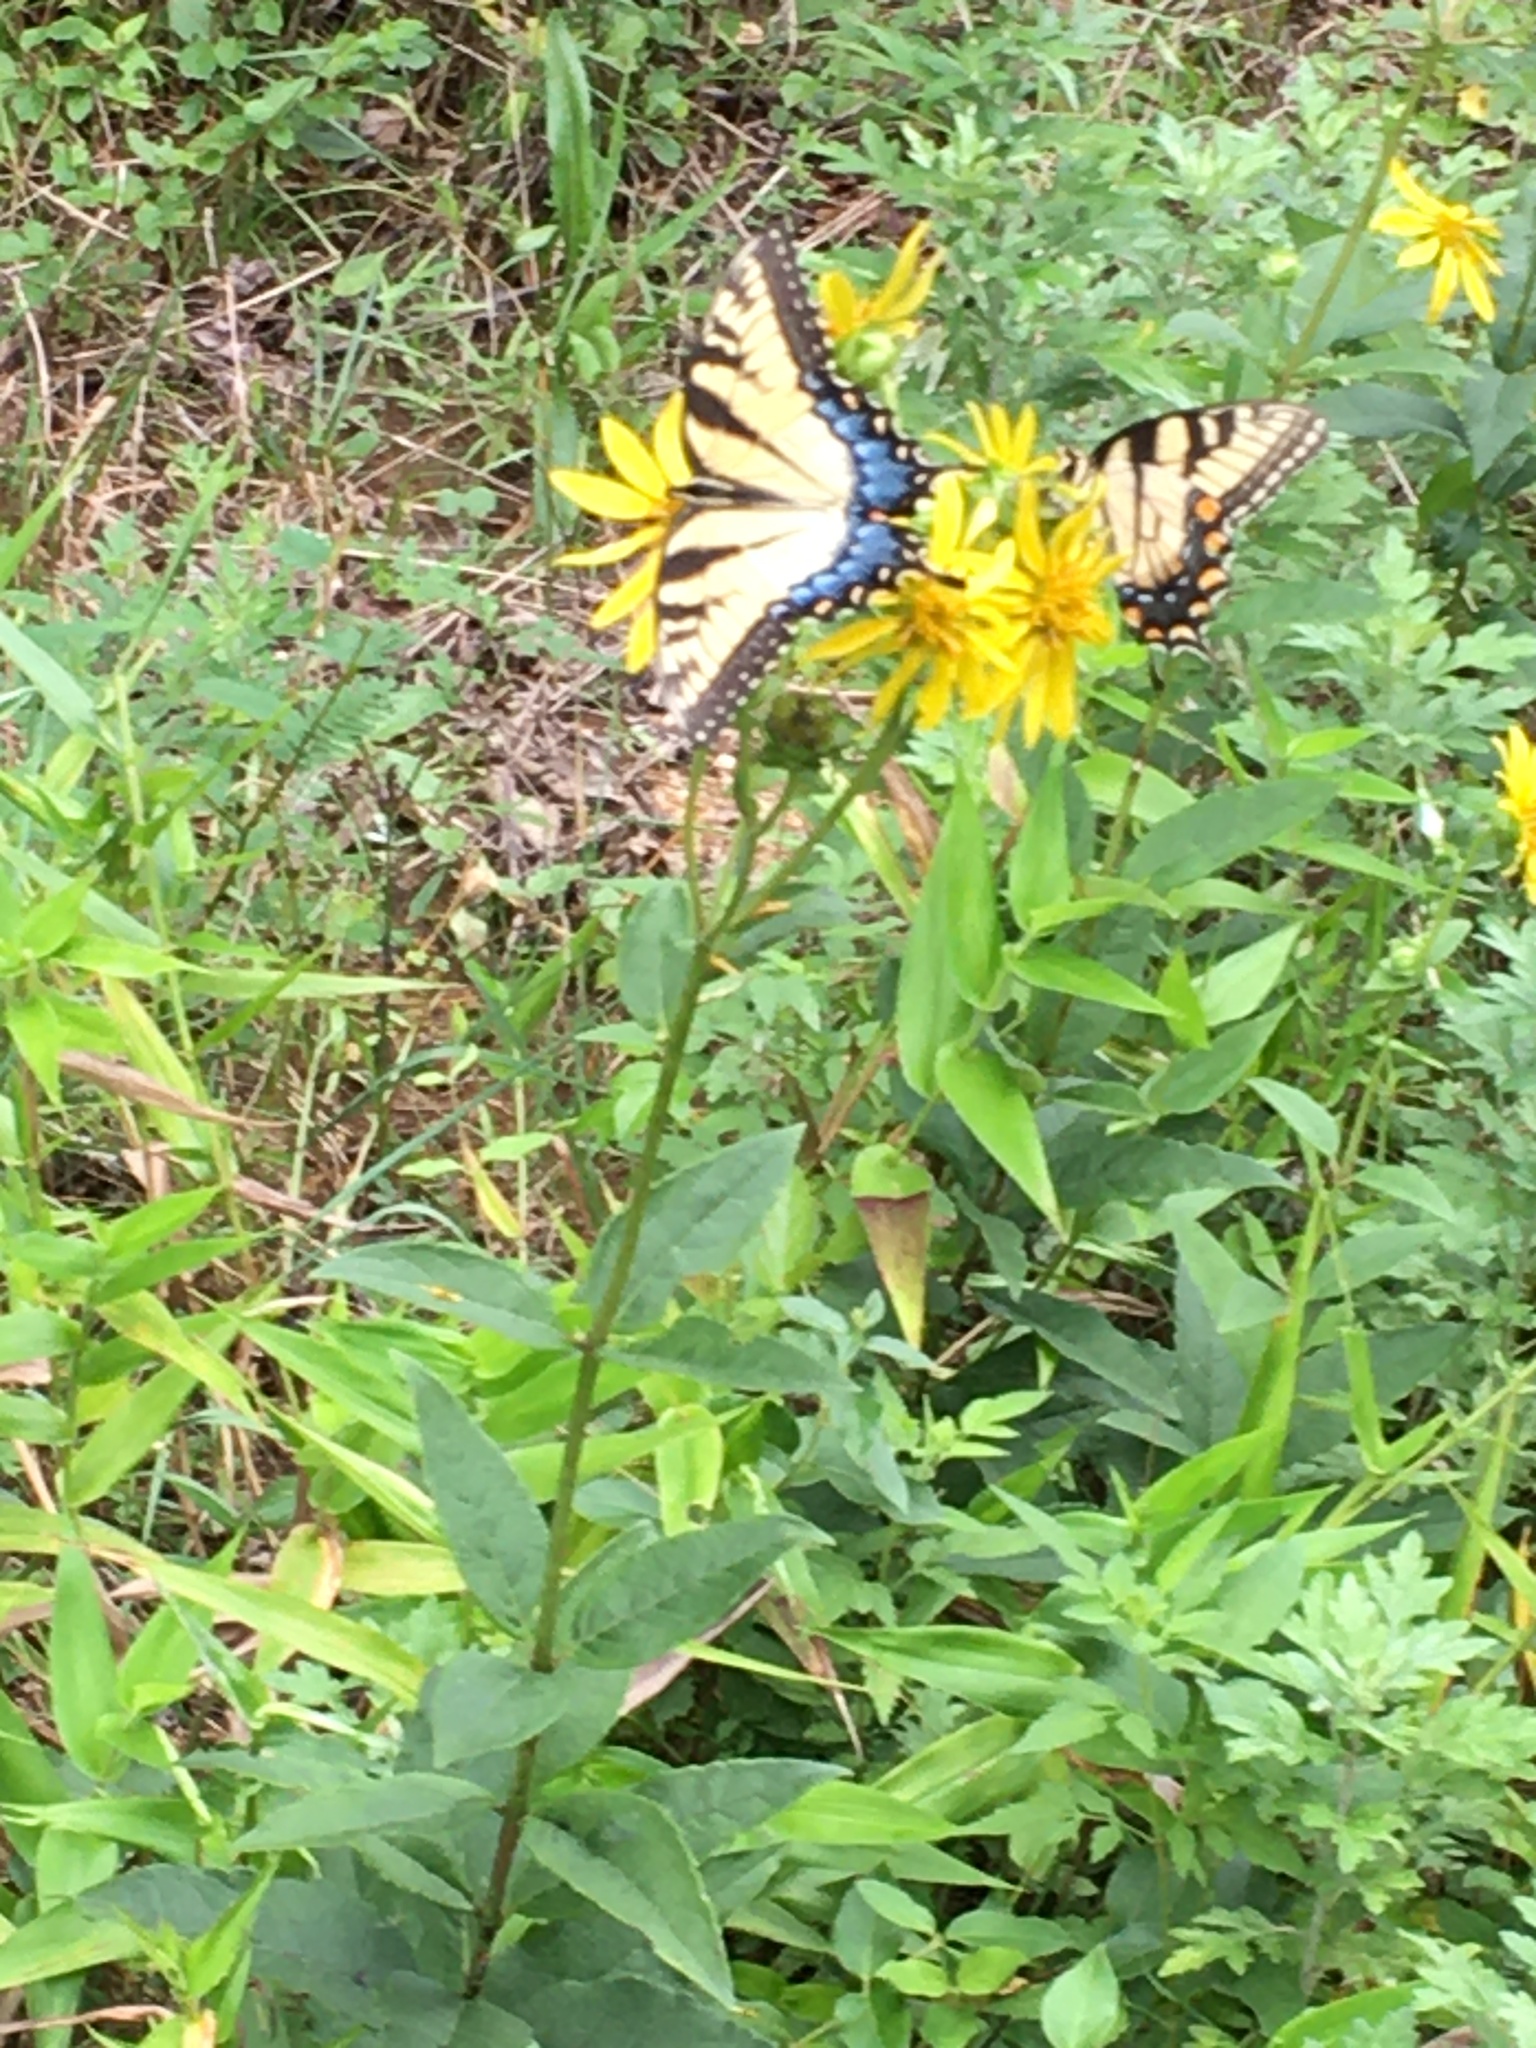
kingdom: Animalia
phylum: Arthropoda
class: Insecta
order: Lepidoptera
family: Papilionidae
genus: Papilio
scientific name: Papilio glaucus
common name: Tiger swallowtail
